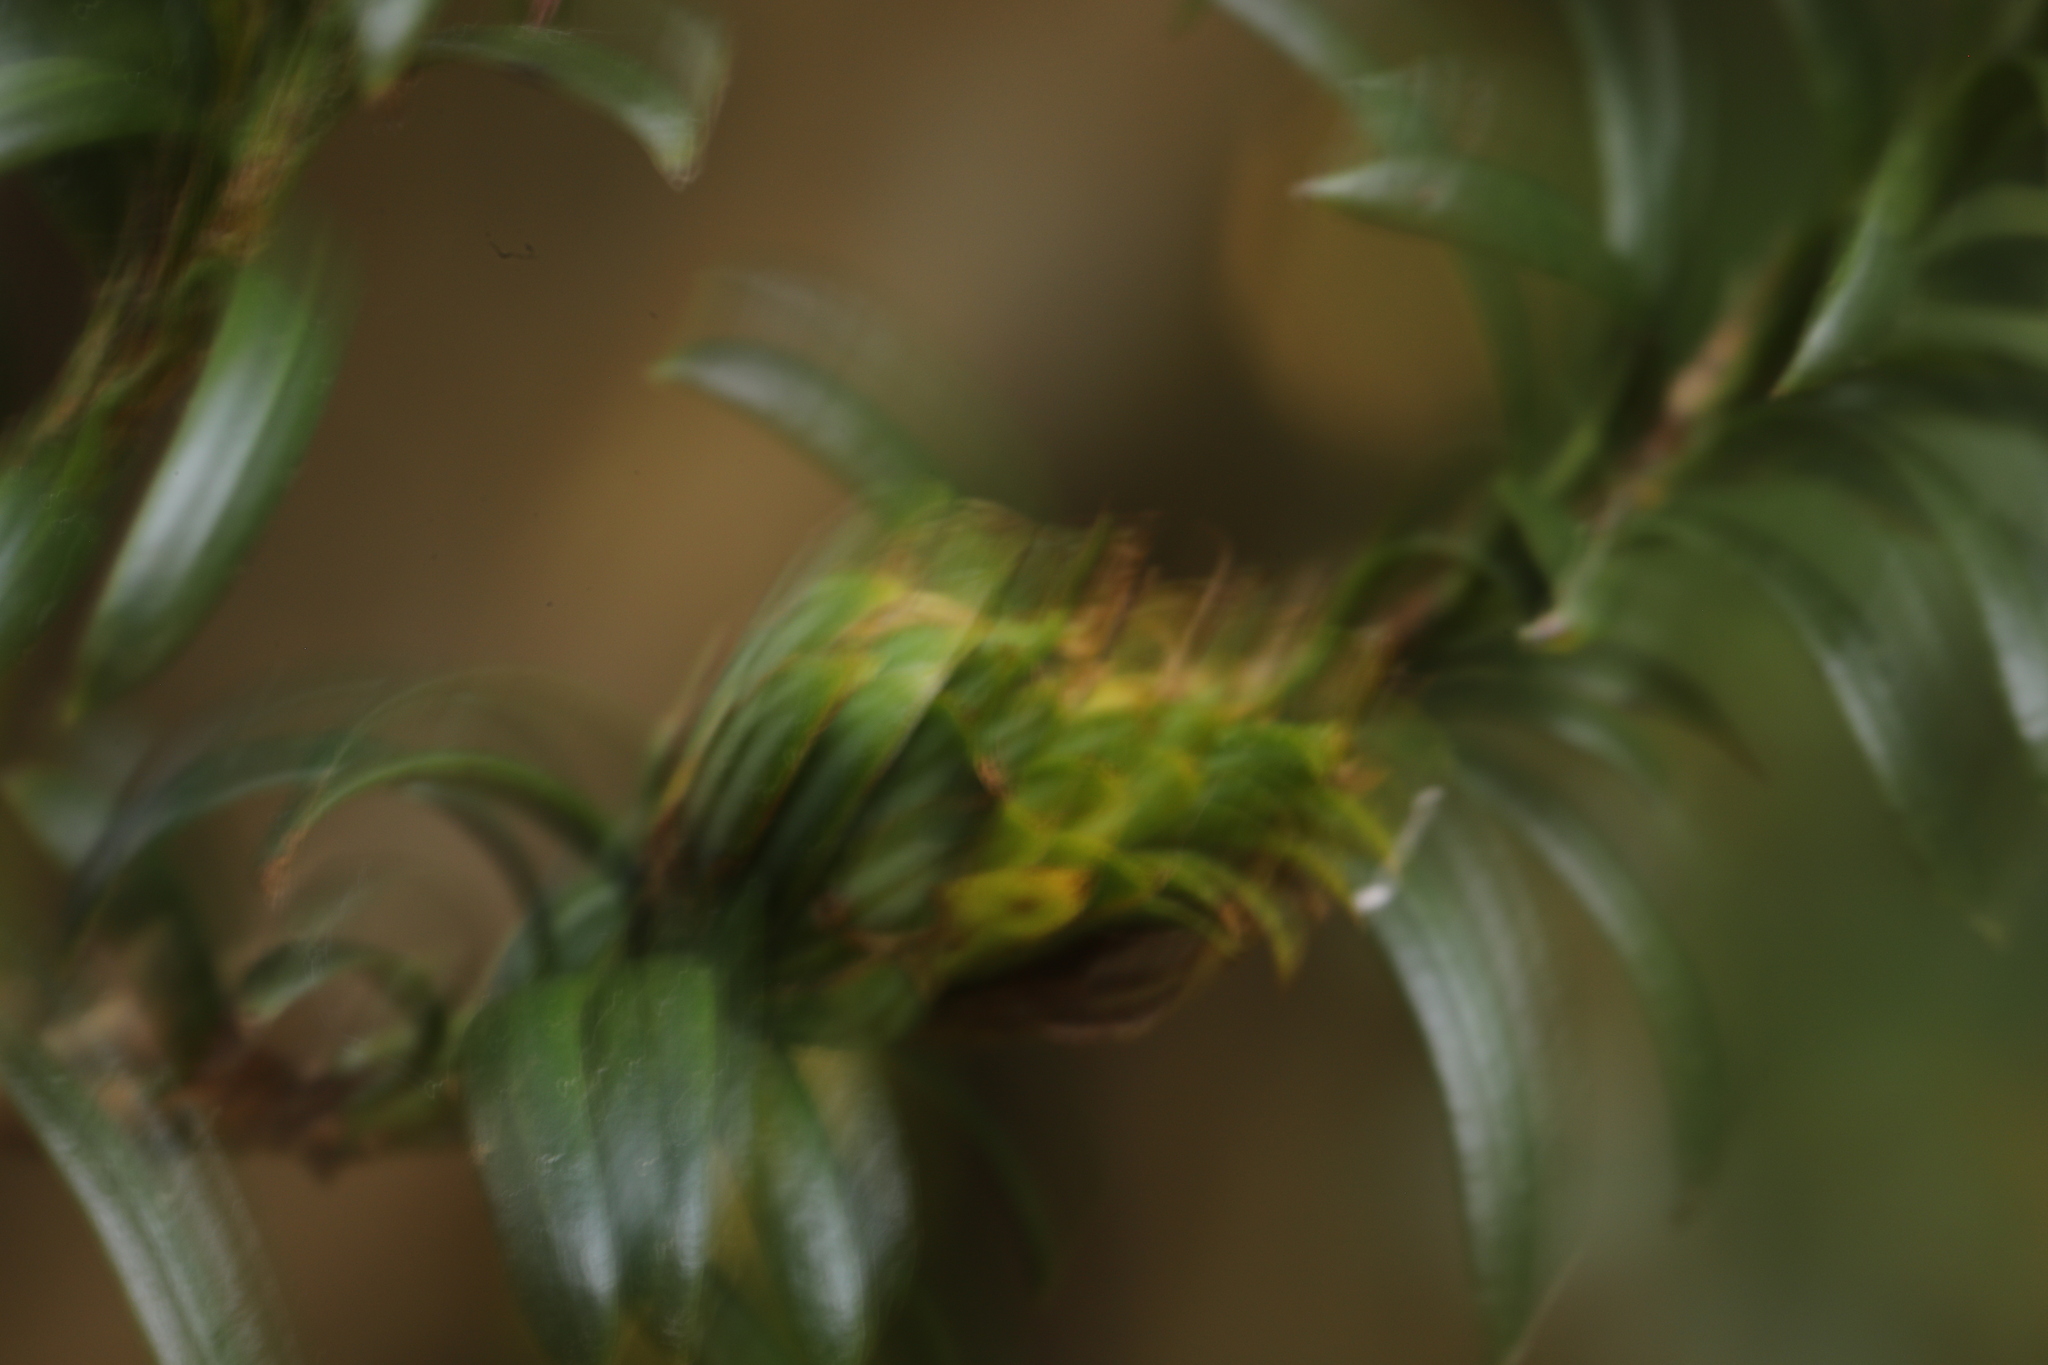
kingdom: Animalia
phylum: Arthropoda
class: Insecta
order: Diptera
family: Cecidomyiidae
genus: Taxomyia
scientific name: Taxomyia taxi
